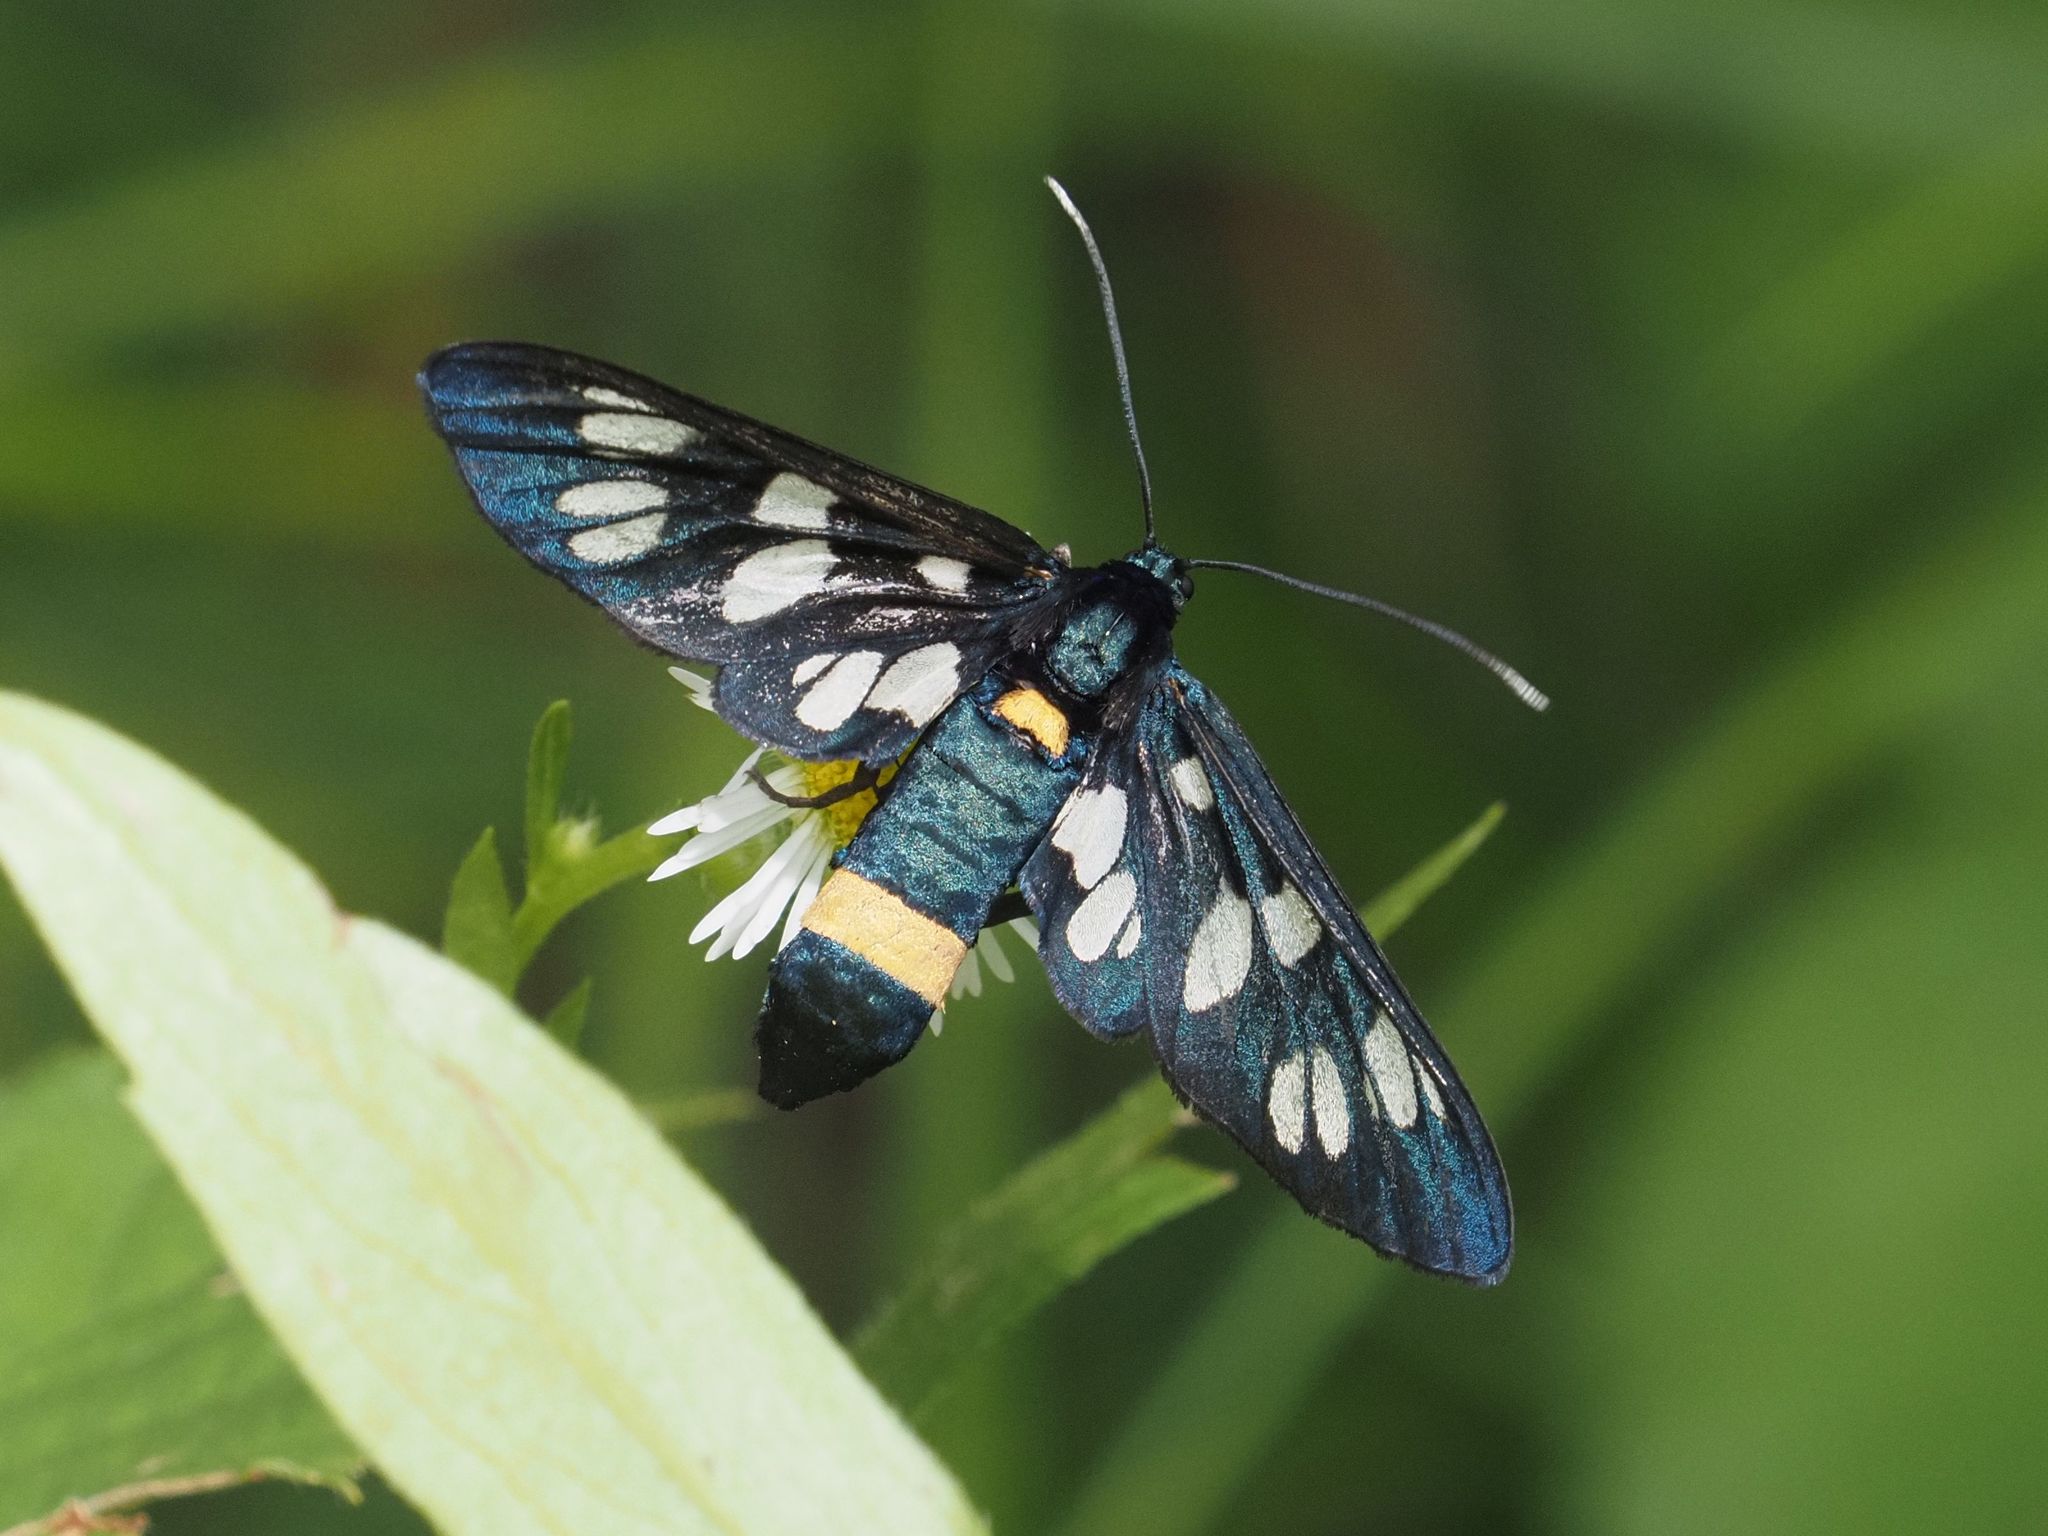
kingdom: Animalia
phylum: Arthropoda
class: Insecta
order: Lepidoptera
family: Erebidae
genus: Amata
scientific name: Amata phegea
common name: Nine-spotted
